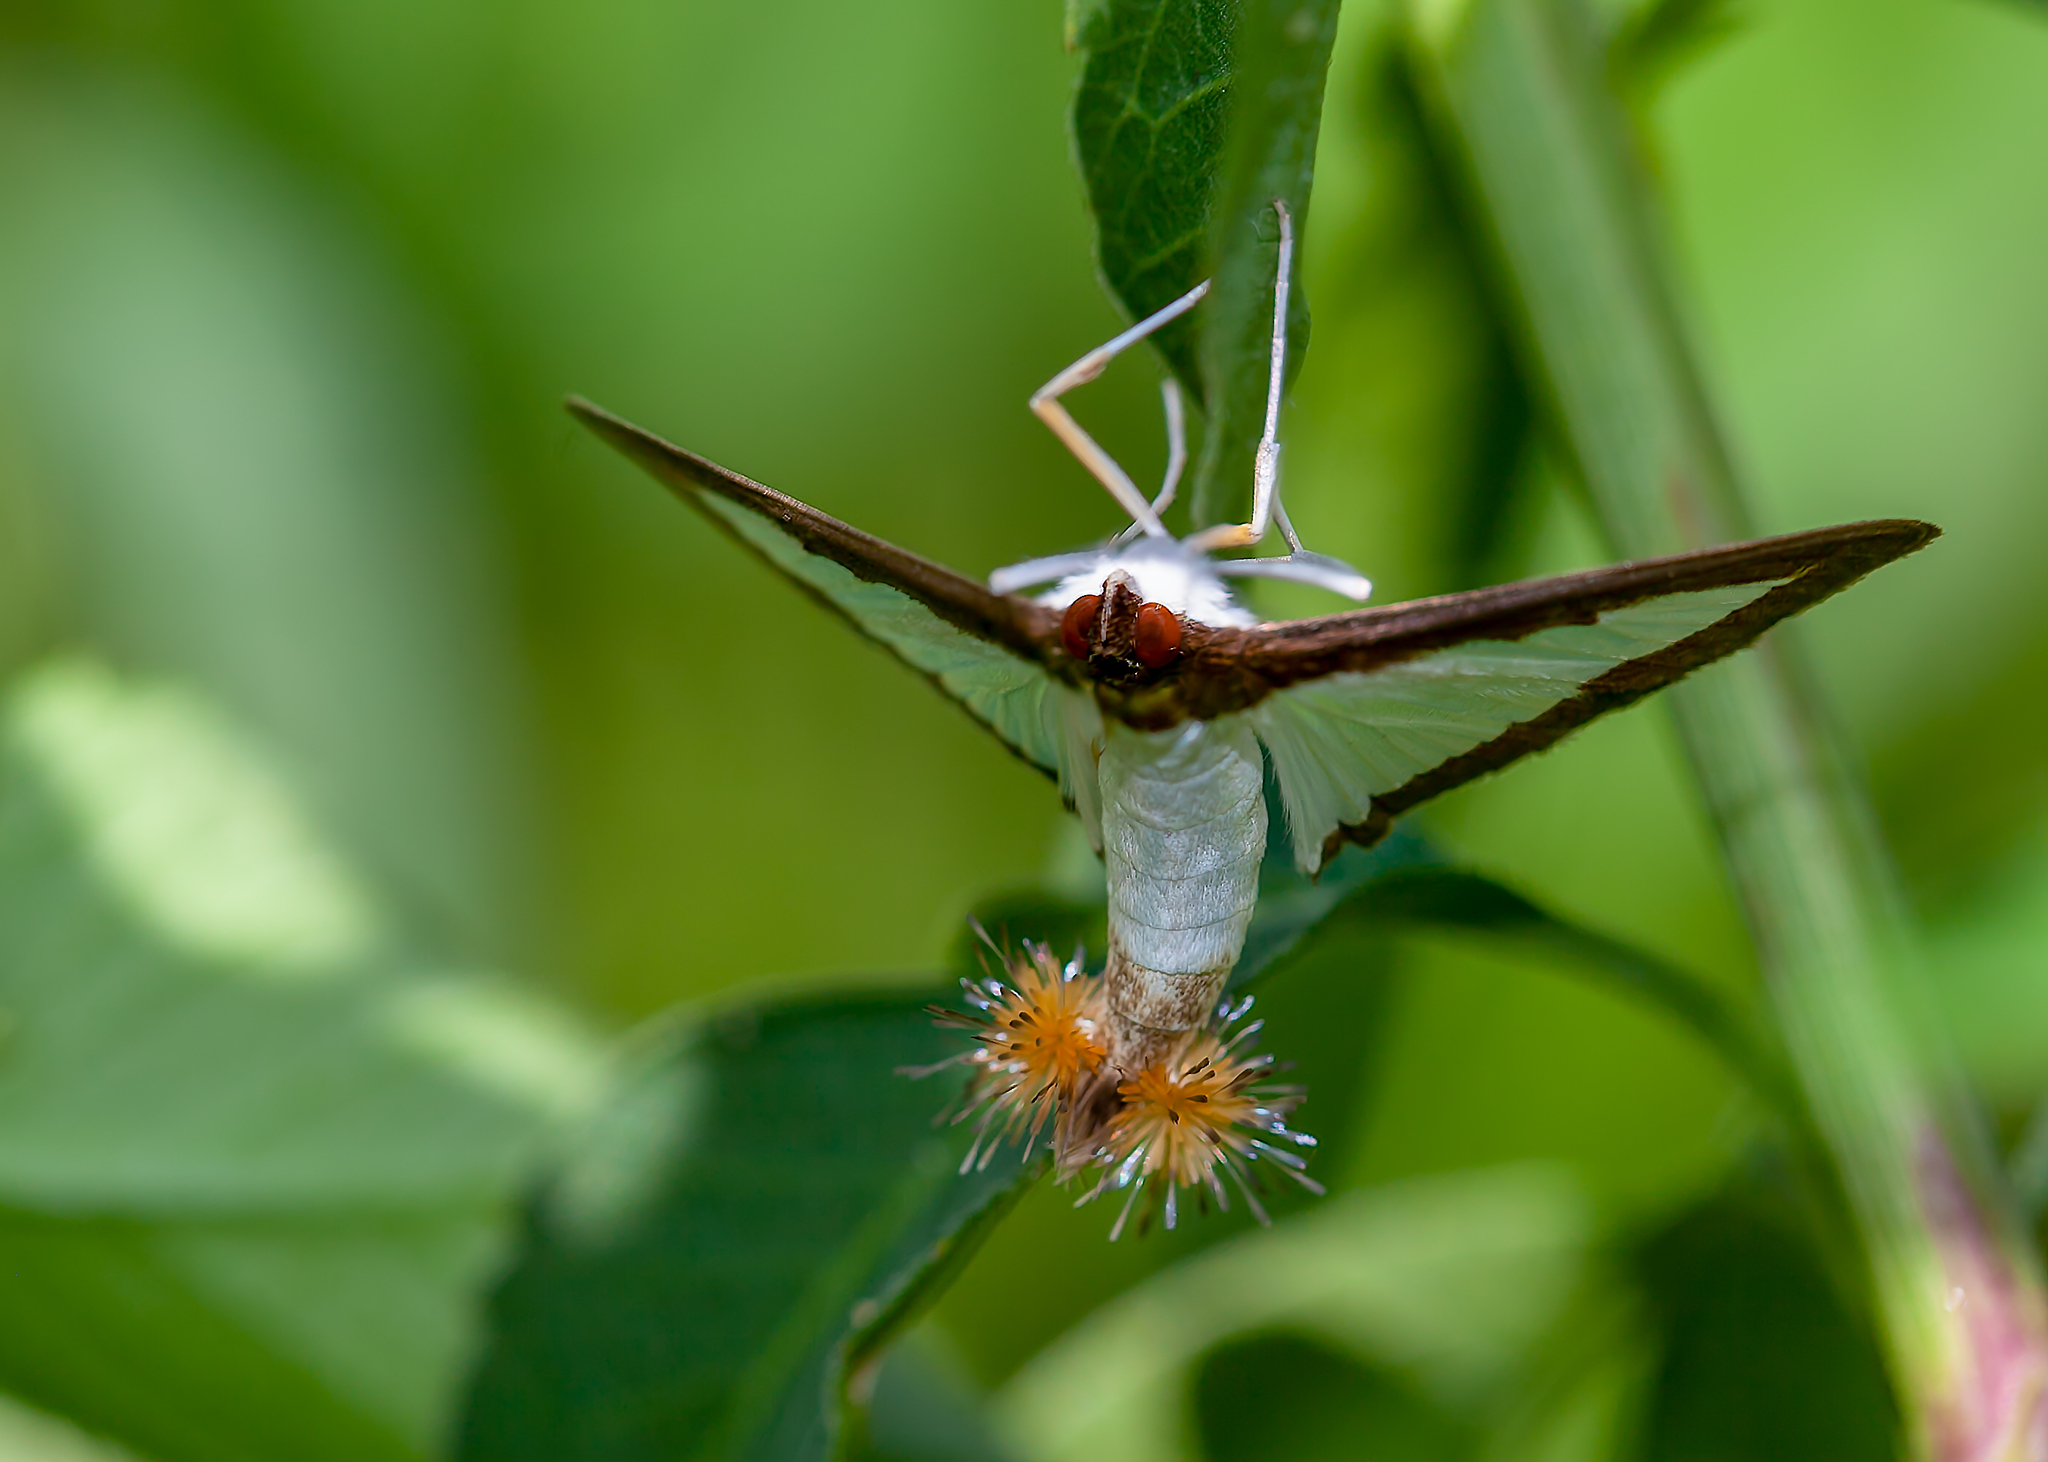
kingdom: Animalia
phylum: Arthropoda
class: Insecta
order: Lepidoptera
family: Crambidae
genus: Diaphania
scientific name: Diaphania hyalinata
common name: Melonworm
